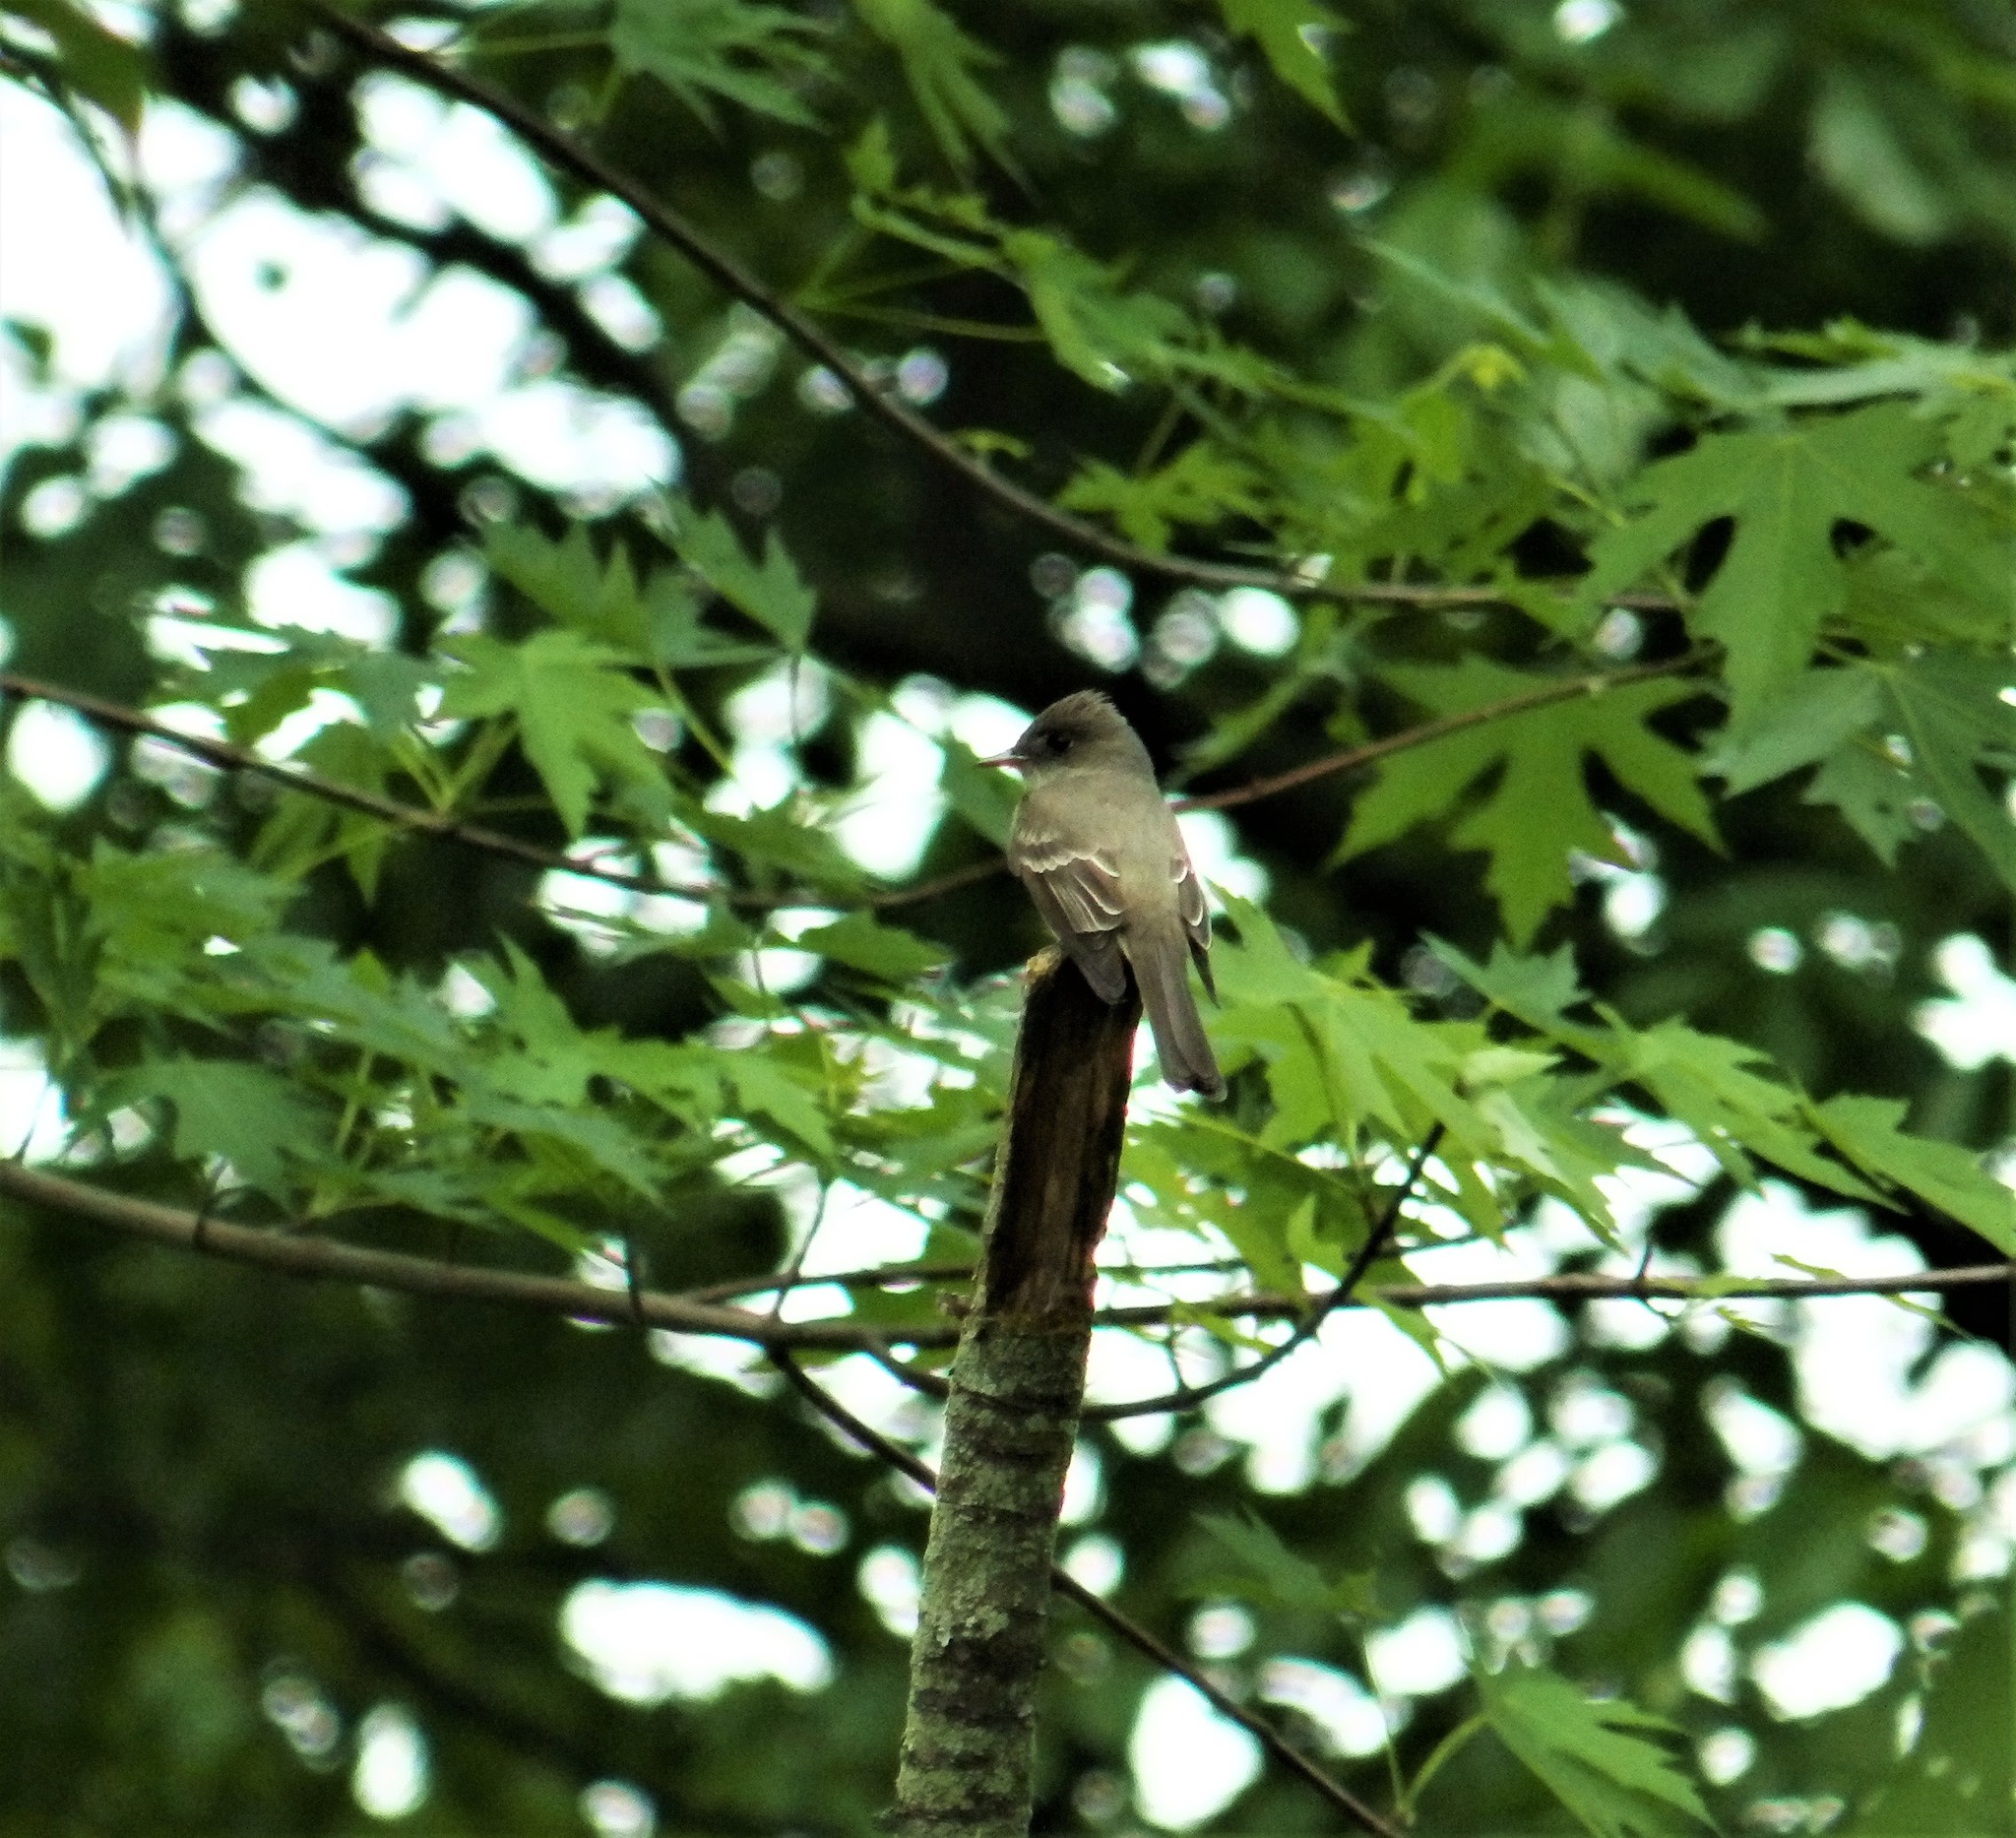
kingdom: Animalia
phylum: Chordata
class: Aves
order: Passeriformes
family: Tyrannidae
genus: Contopus
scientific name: Contopus virens
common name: Eastern wood-pewee
